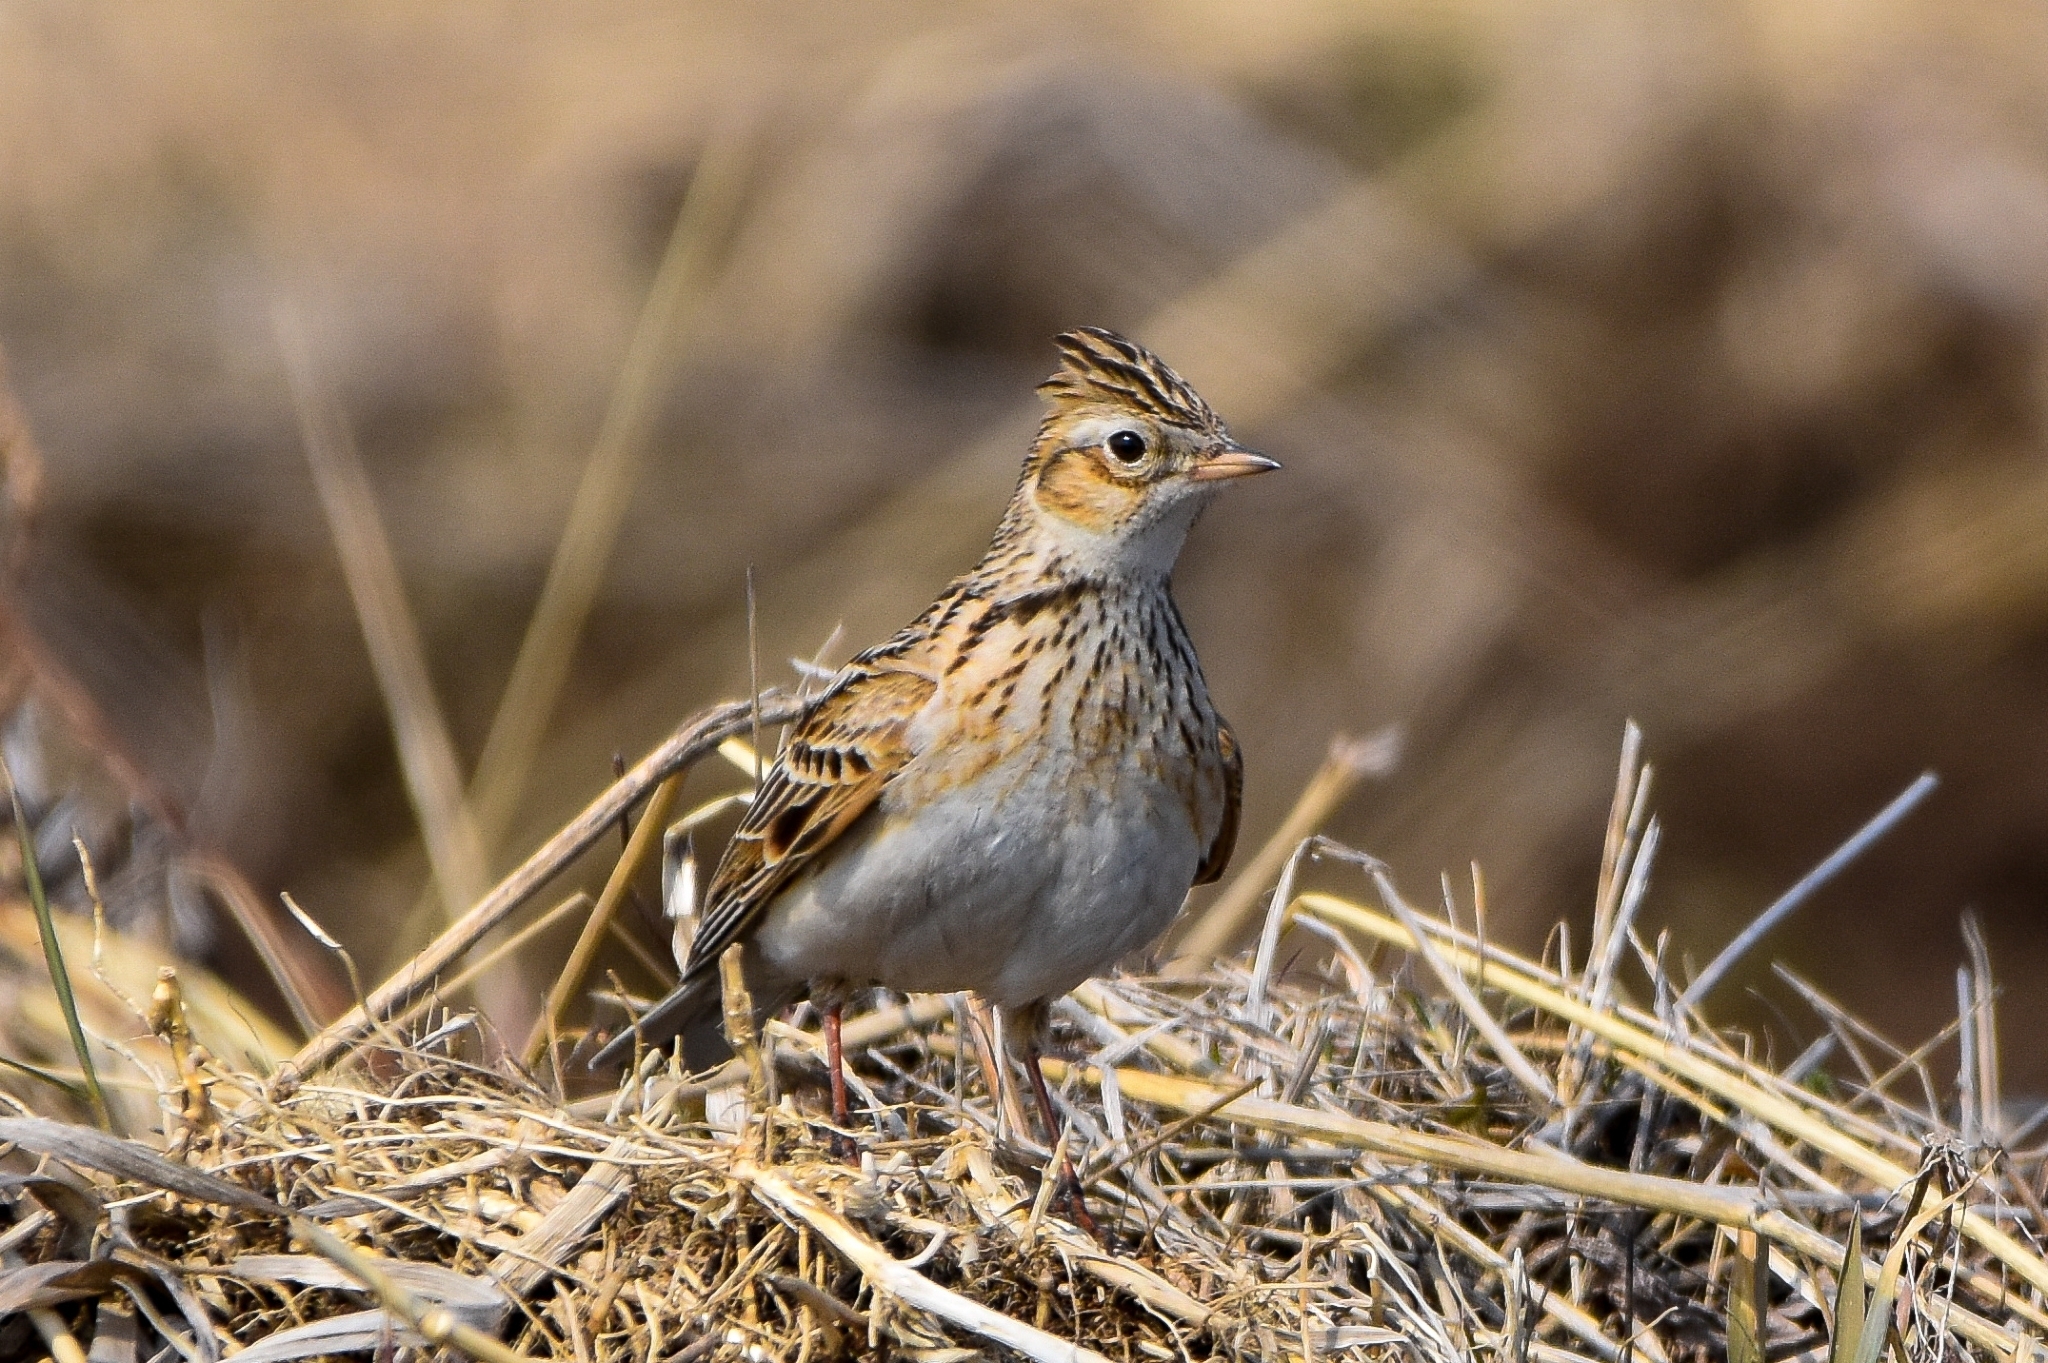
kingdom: Animalia
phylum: Chordata
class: Aves
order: Passeriformes
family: Alaudidae
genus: Alauda
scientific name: Alauda arvensis
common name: Eurasian skylark
